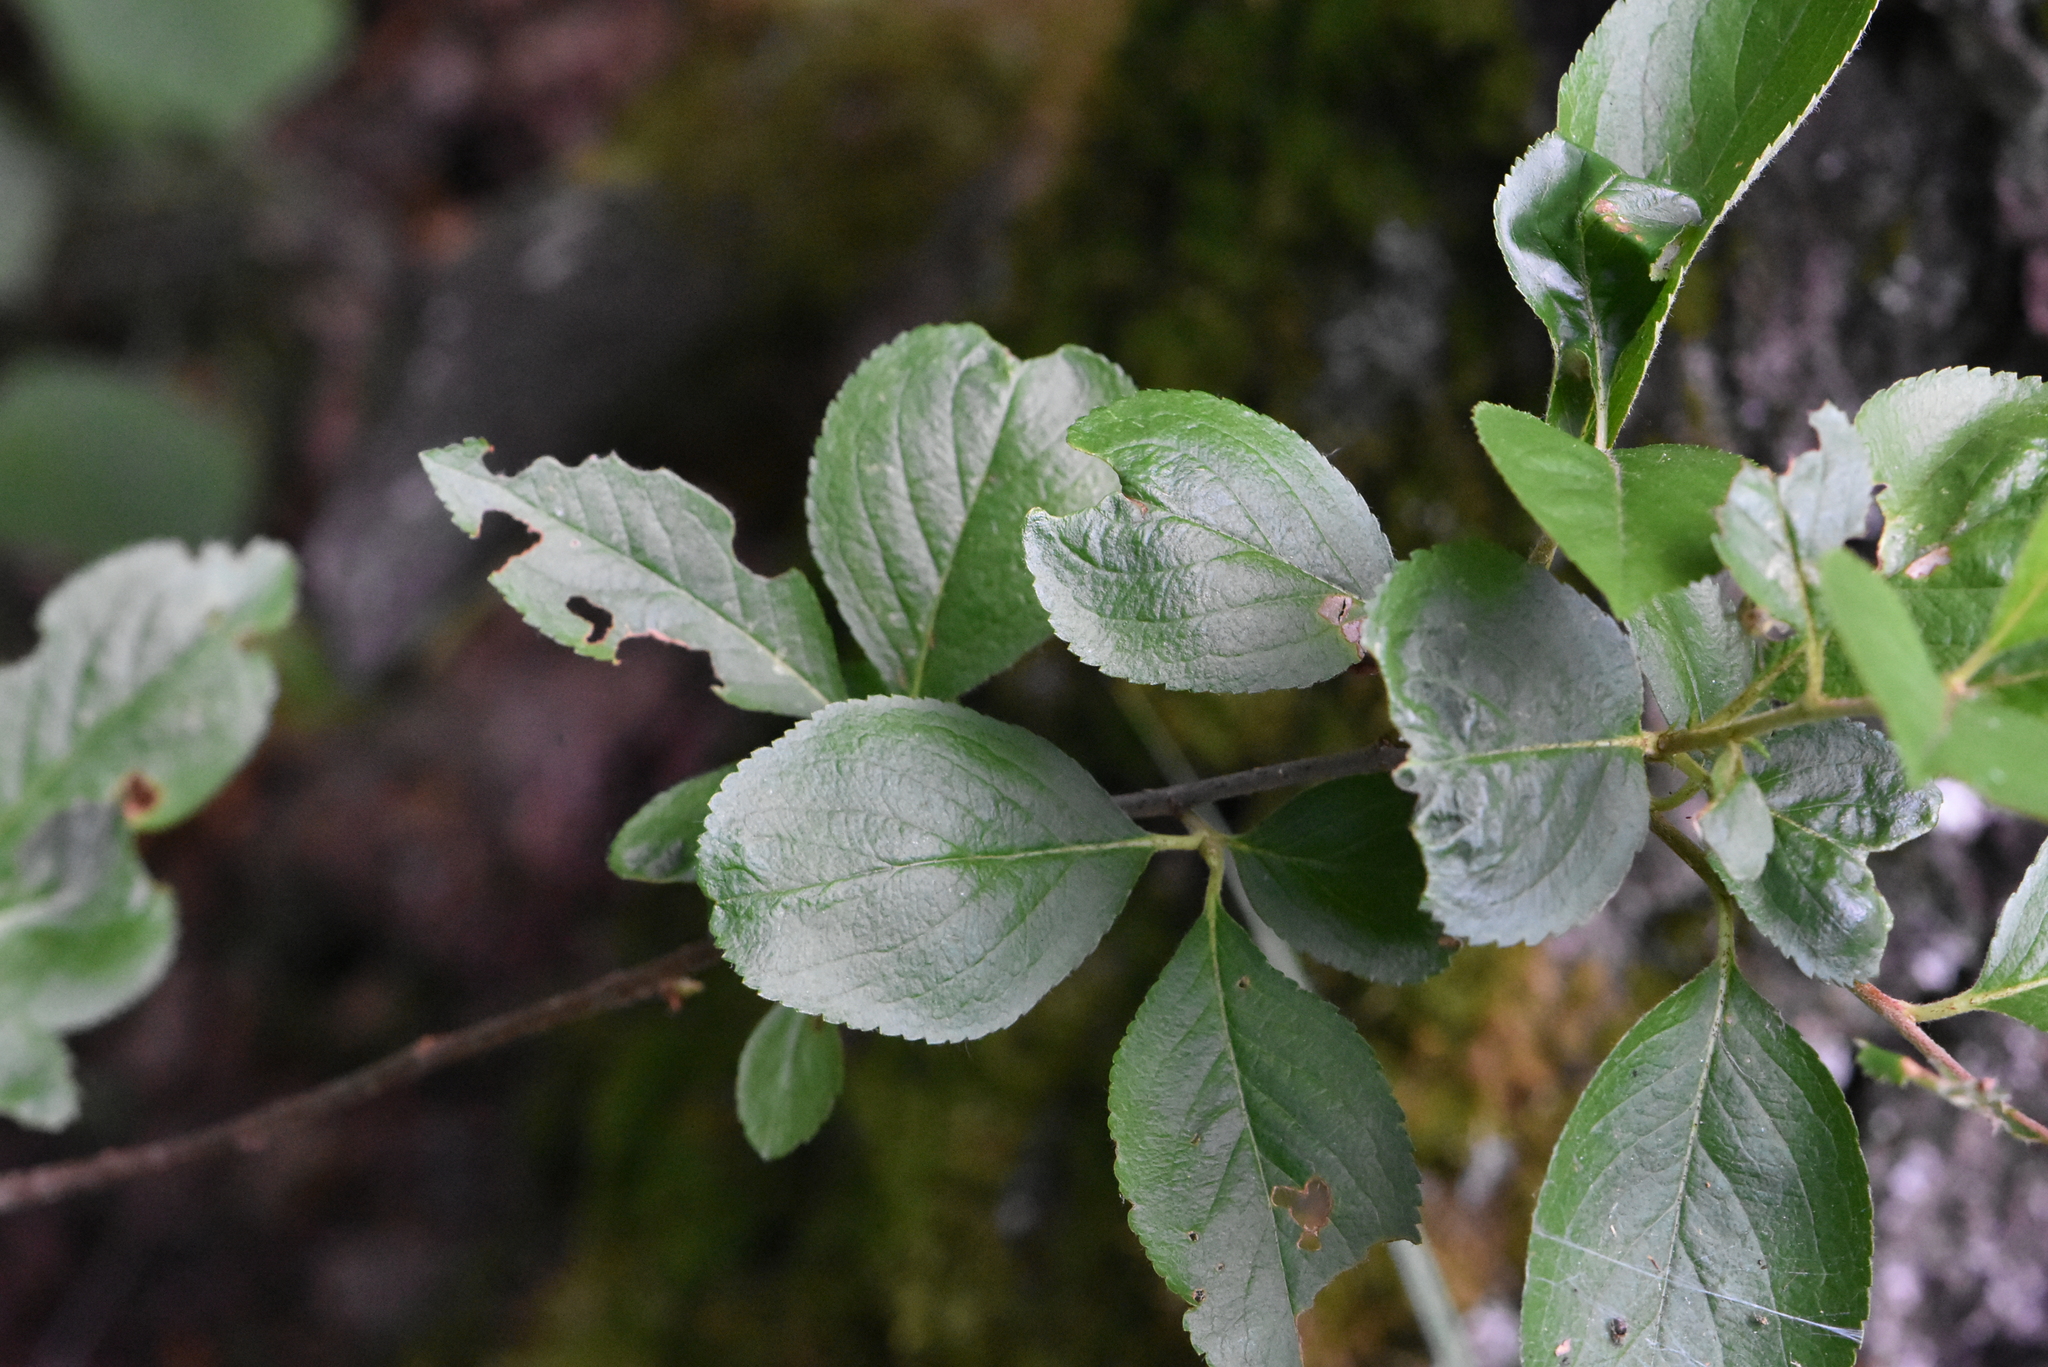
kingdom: Plantae
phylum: Tracheophyta
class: Magnoliopsida
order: Rosales
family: Rosaceae
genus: Sorbaronia
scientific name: Sorbaronia arsenii
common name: Arsène's mountain-ash
